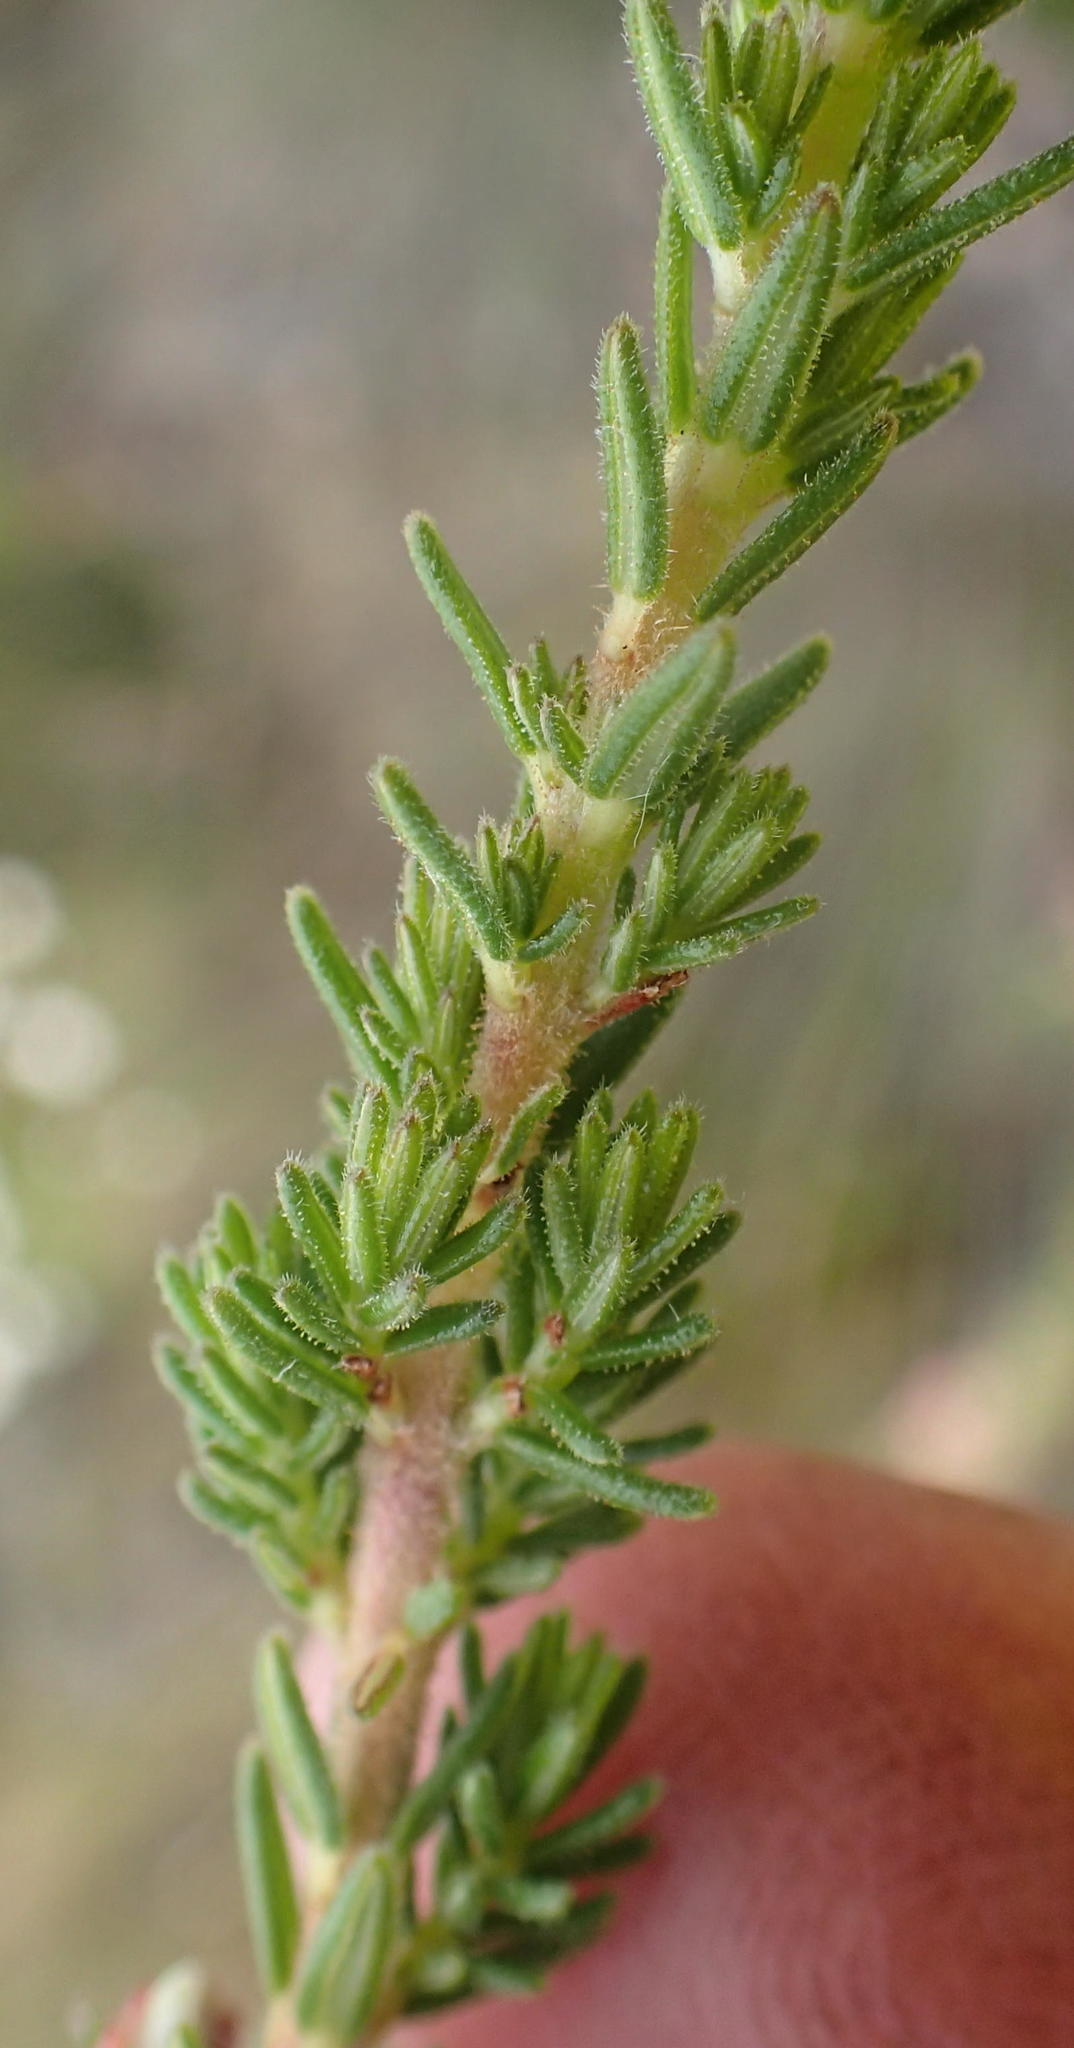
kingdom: Plantae
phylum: Tracheophyta
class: Magnoliopsida
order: Ericales
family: Ericaceae
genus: Erica
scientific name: Erica glomiflora
